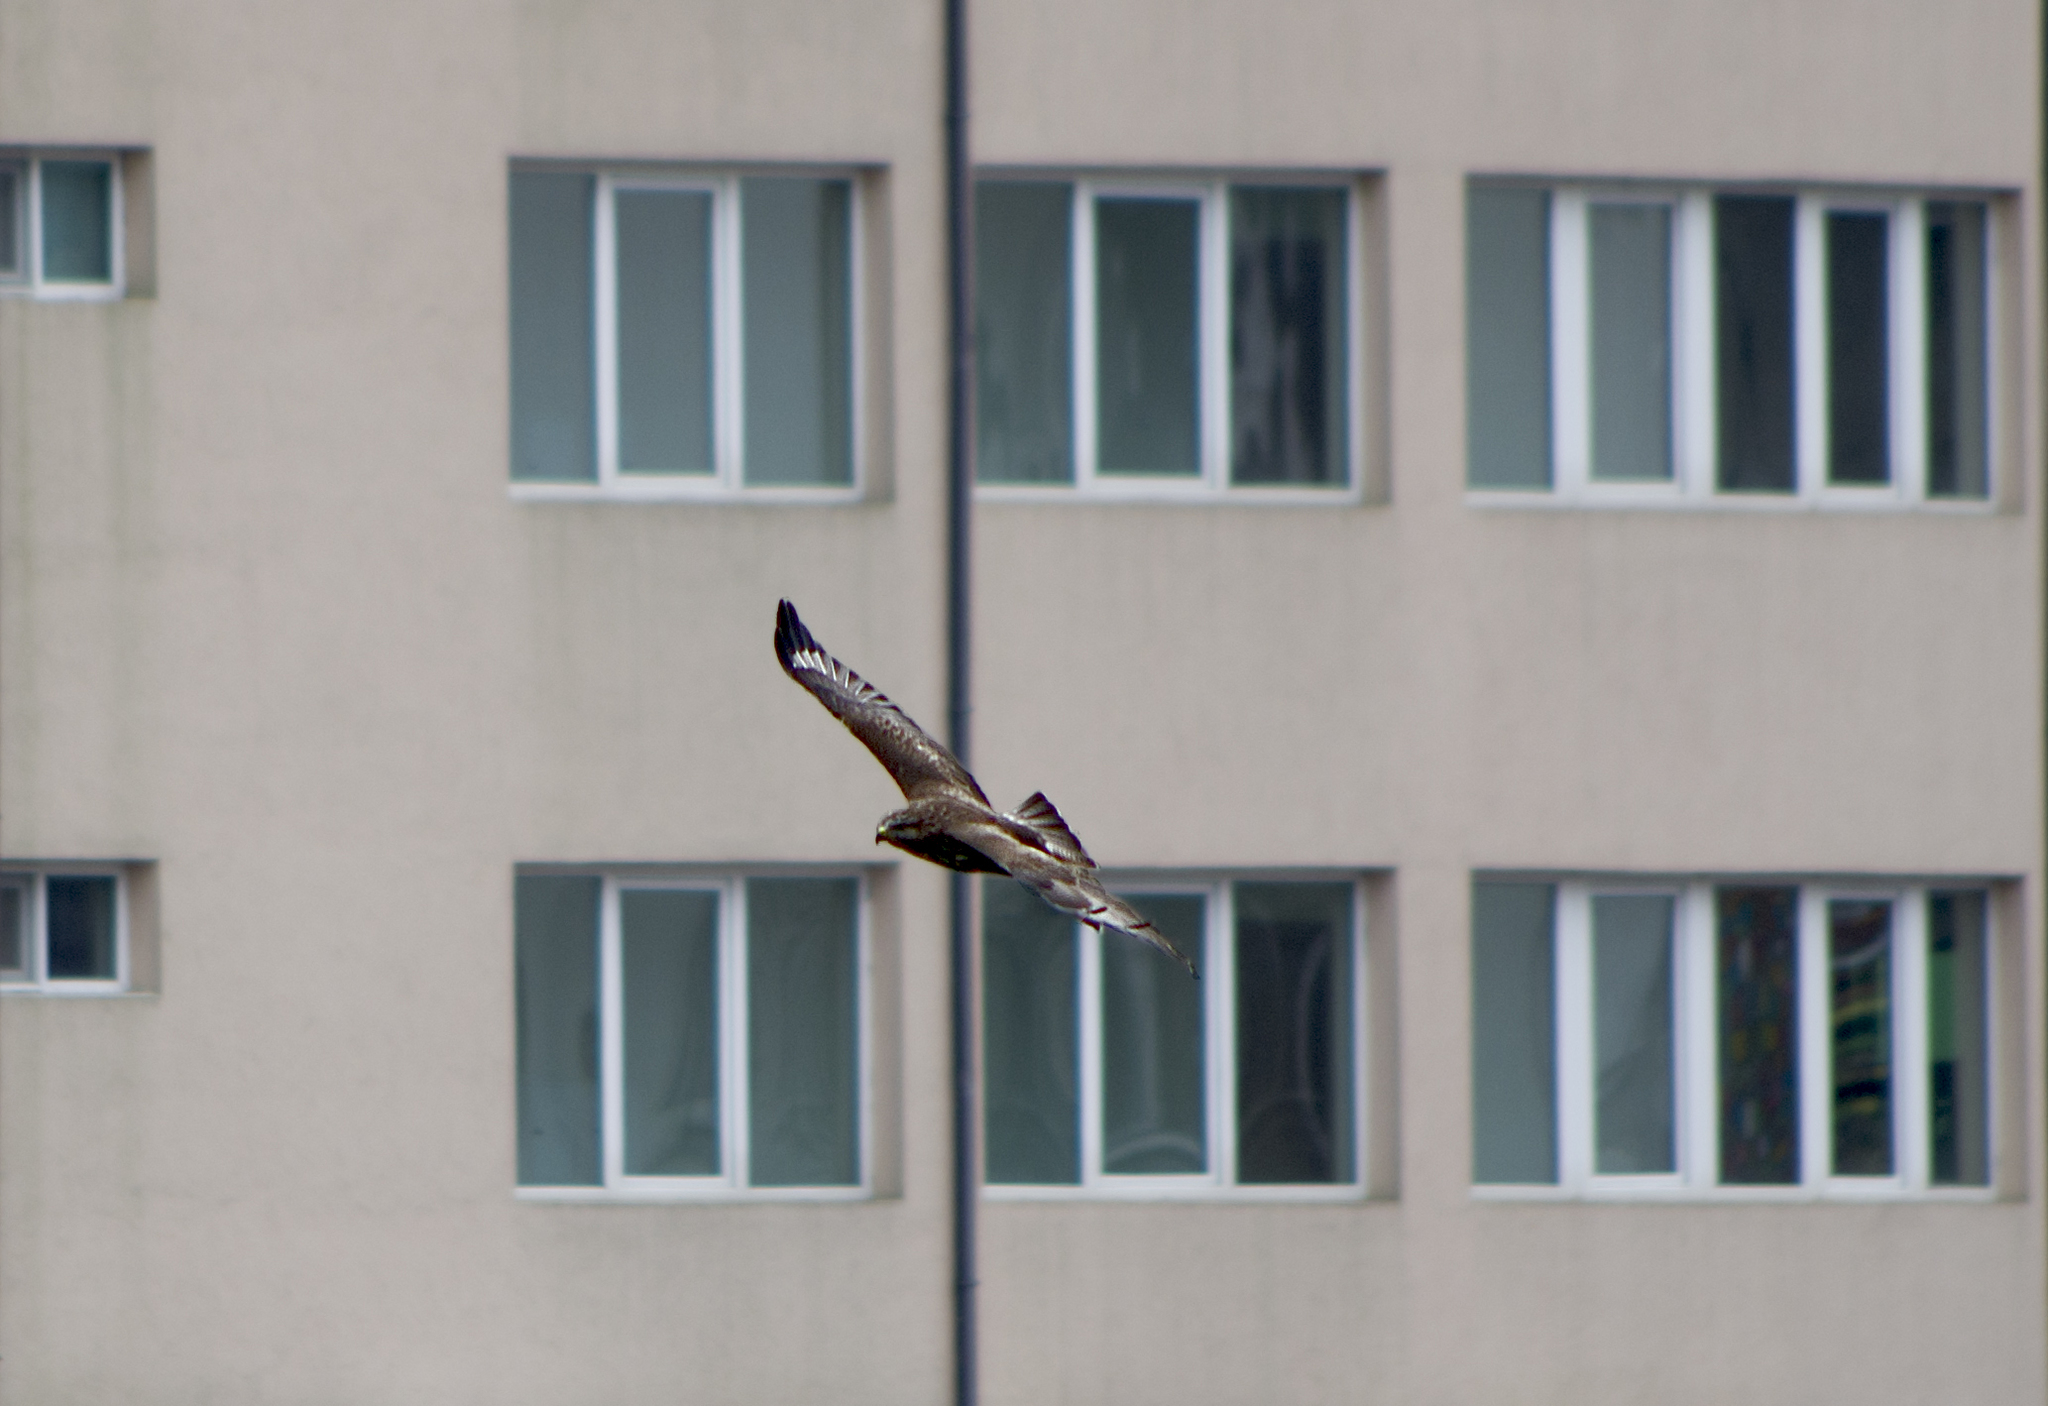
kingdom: Animalia
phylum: Chordata
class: Aves
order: Accipitriformes
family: Accipitridae
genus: Buteo
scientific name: Buteo buteo
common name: Common buzzard
